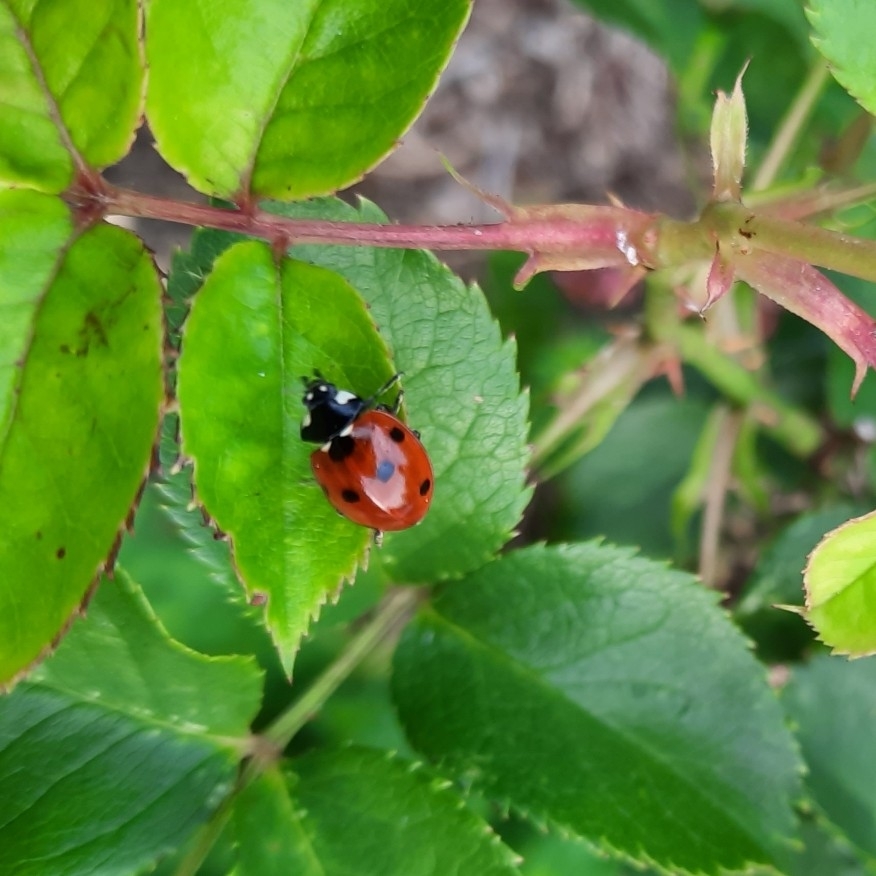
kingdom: Animalia
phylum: Arthropoda
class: Insecta
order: Coleoptera
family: Coccinellidae
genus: Coccinella
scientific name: Coccinella septempunctata
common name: Sevenspotted lady beetle
